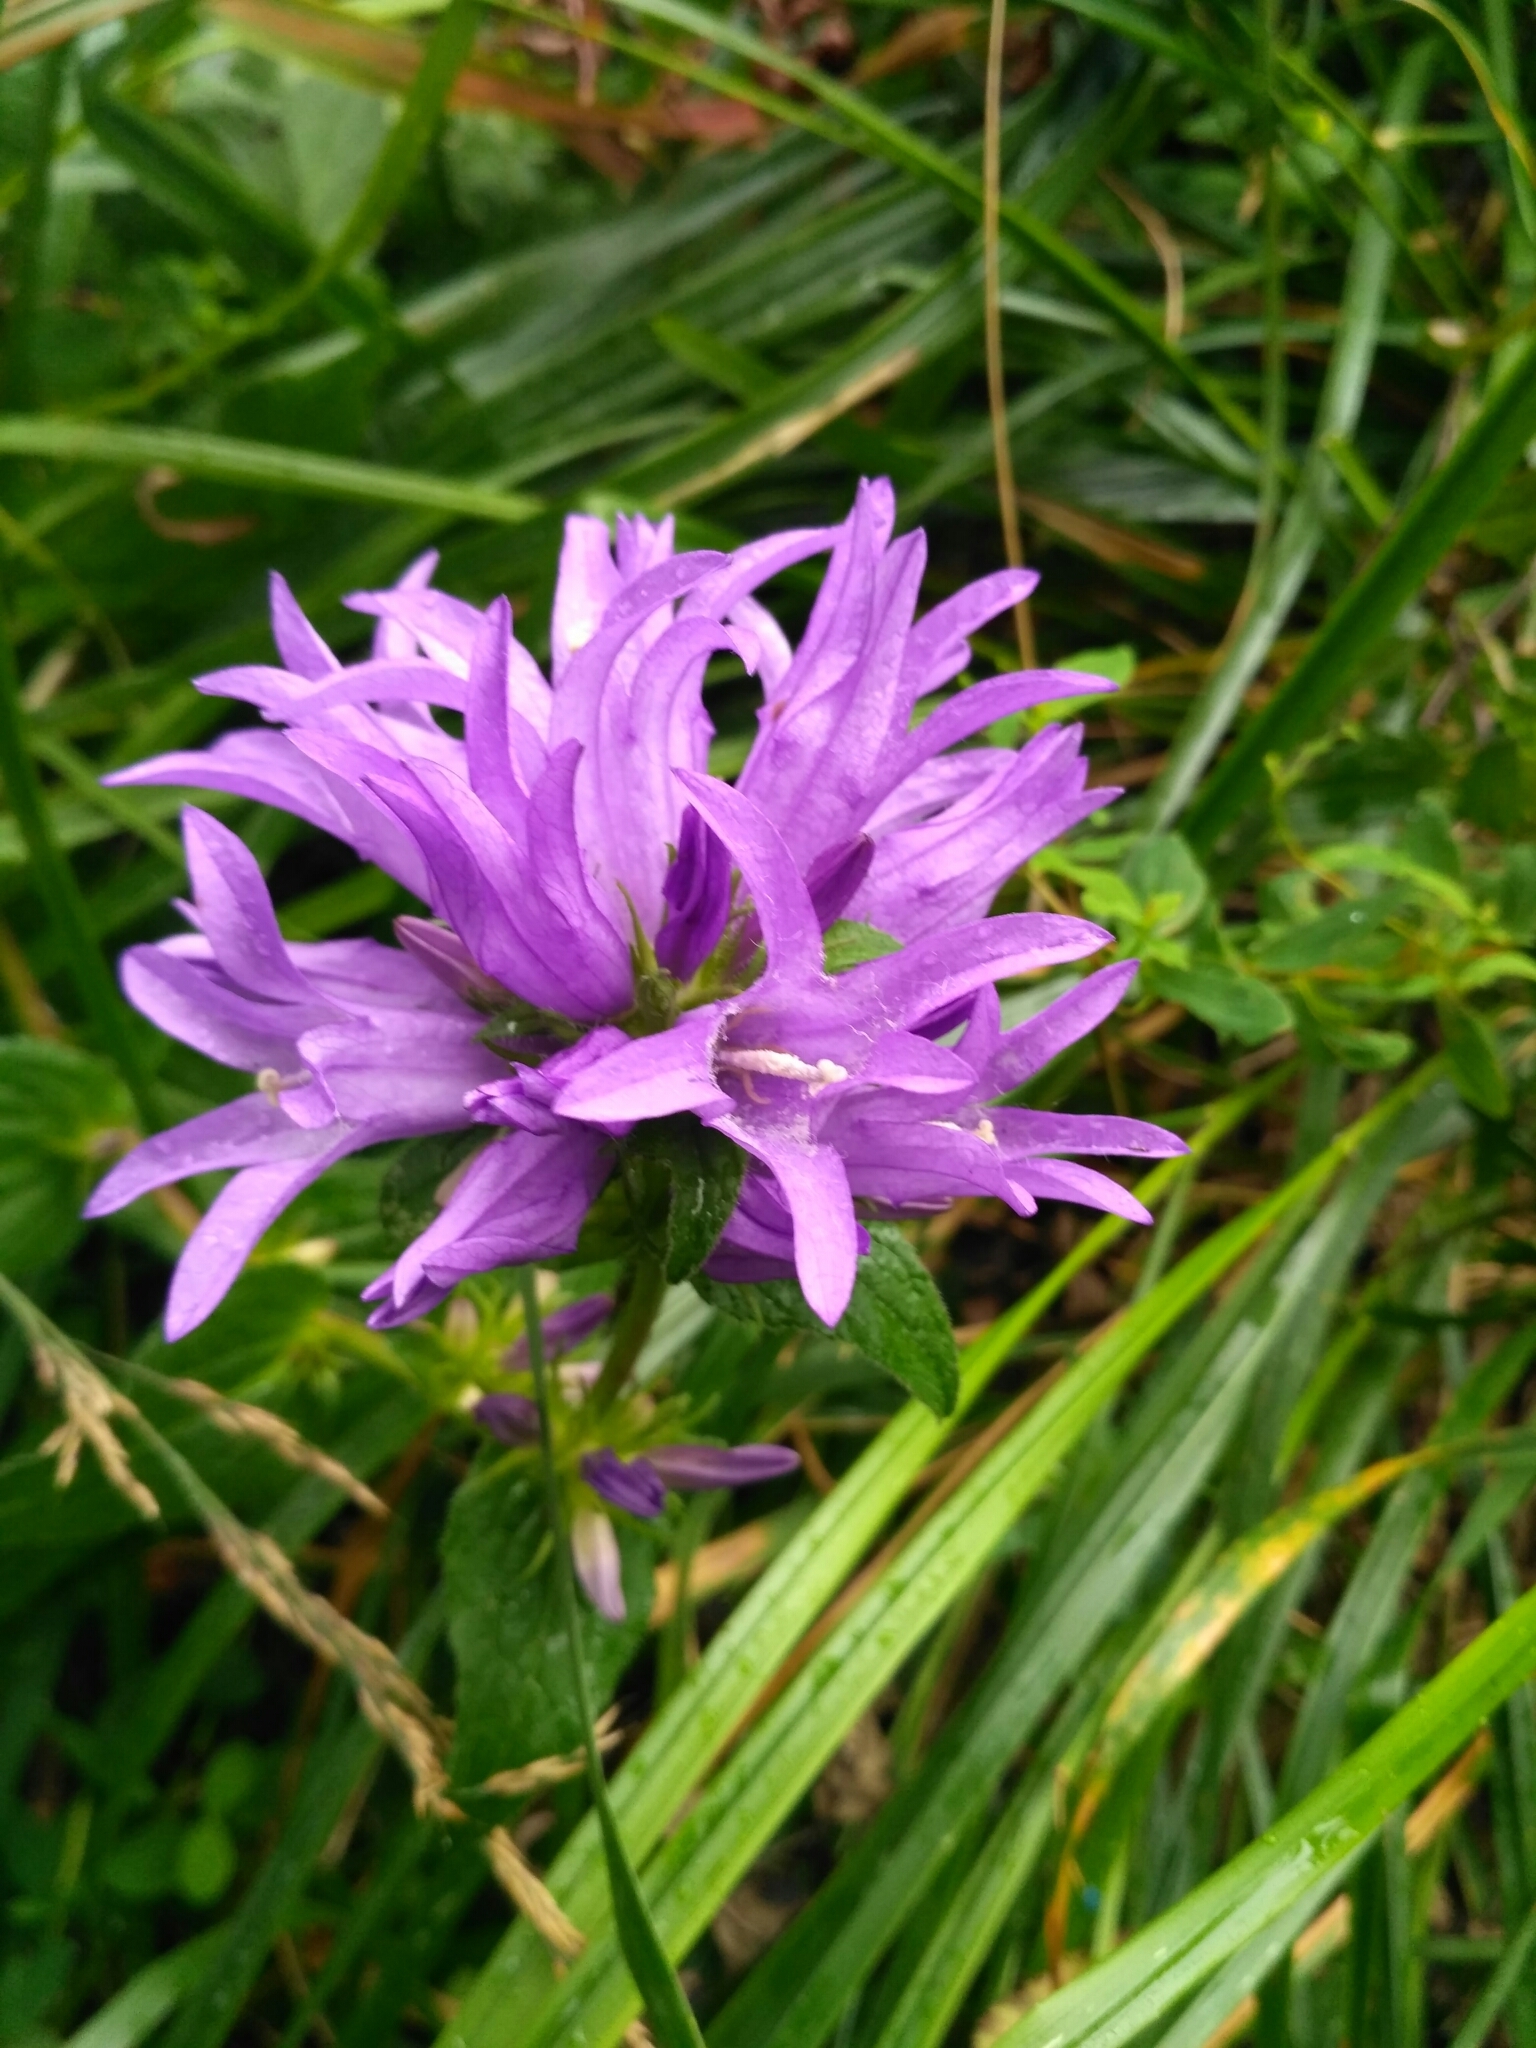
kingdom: Plantae
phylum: Tracheophyta
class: Magnoliopsida
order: Asterales
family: Campanulaceae
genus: Campanula
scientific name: Campanula glomerata
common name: Clustered bellflower
